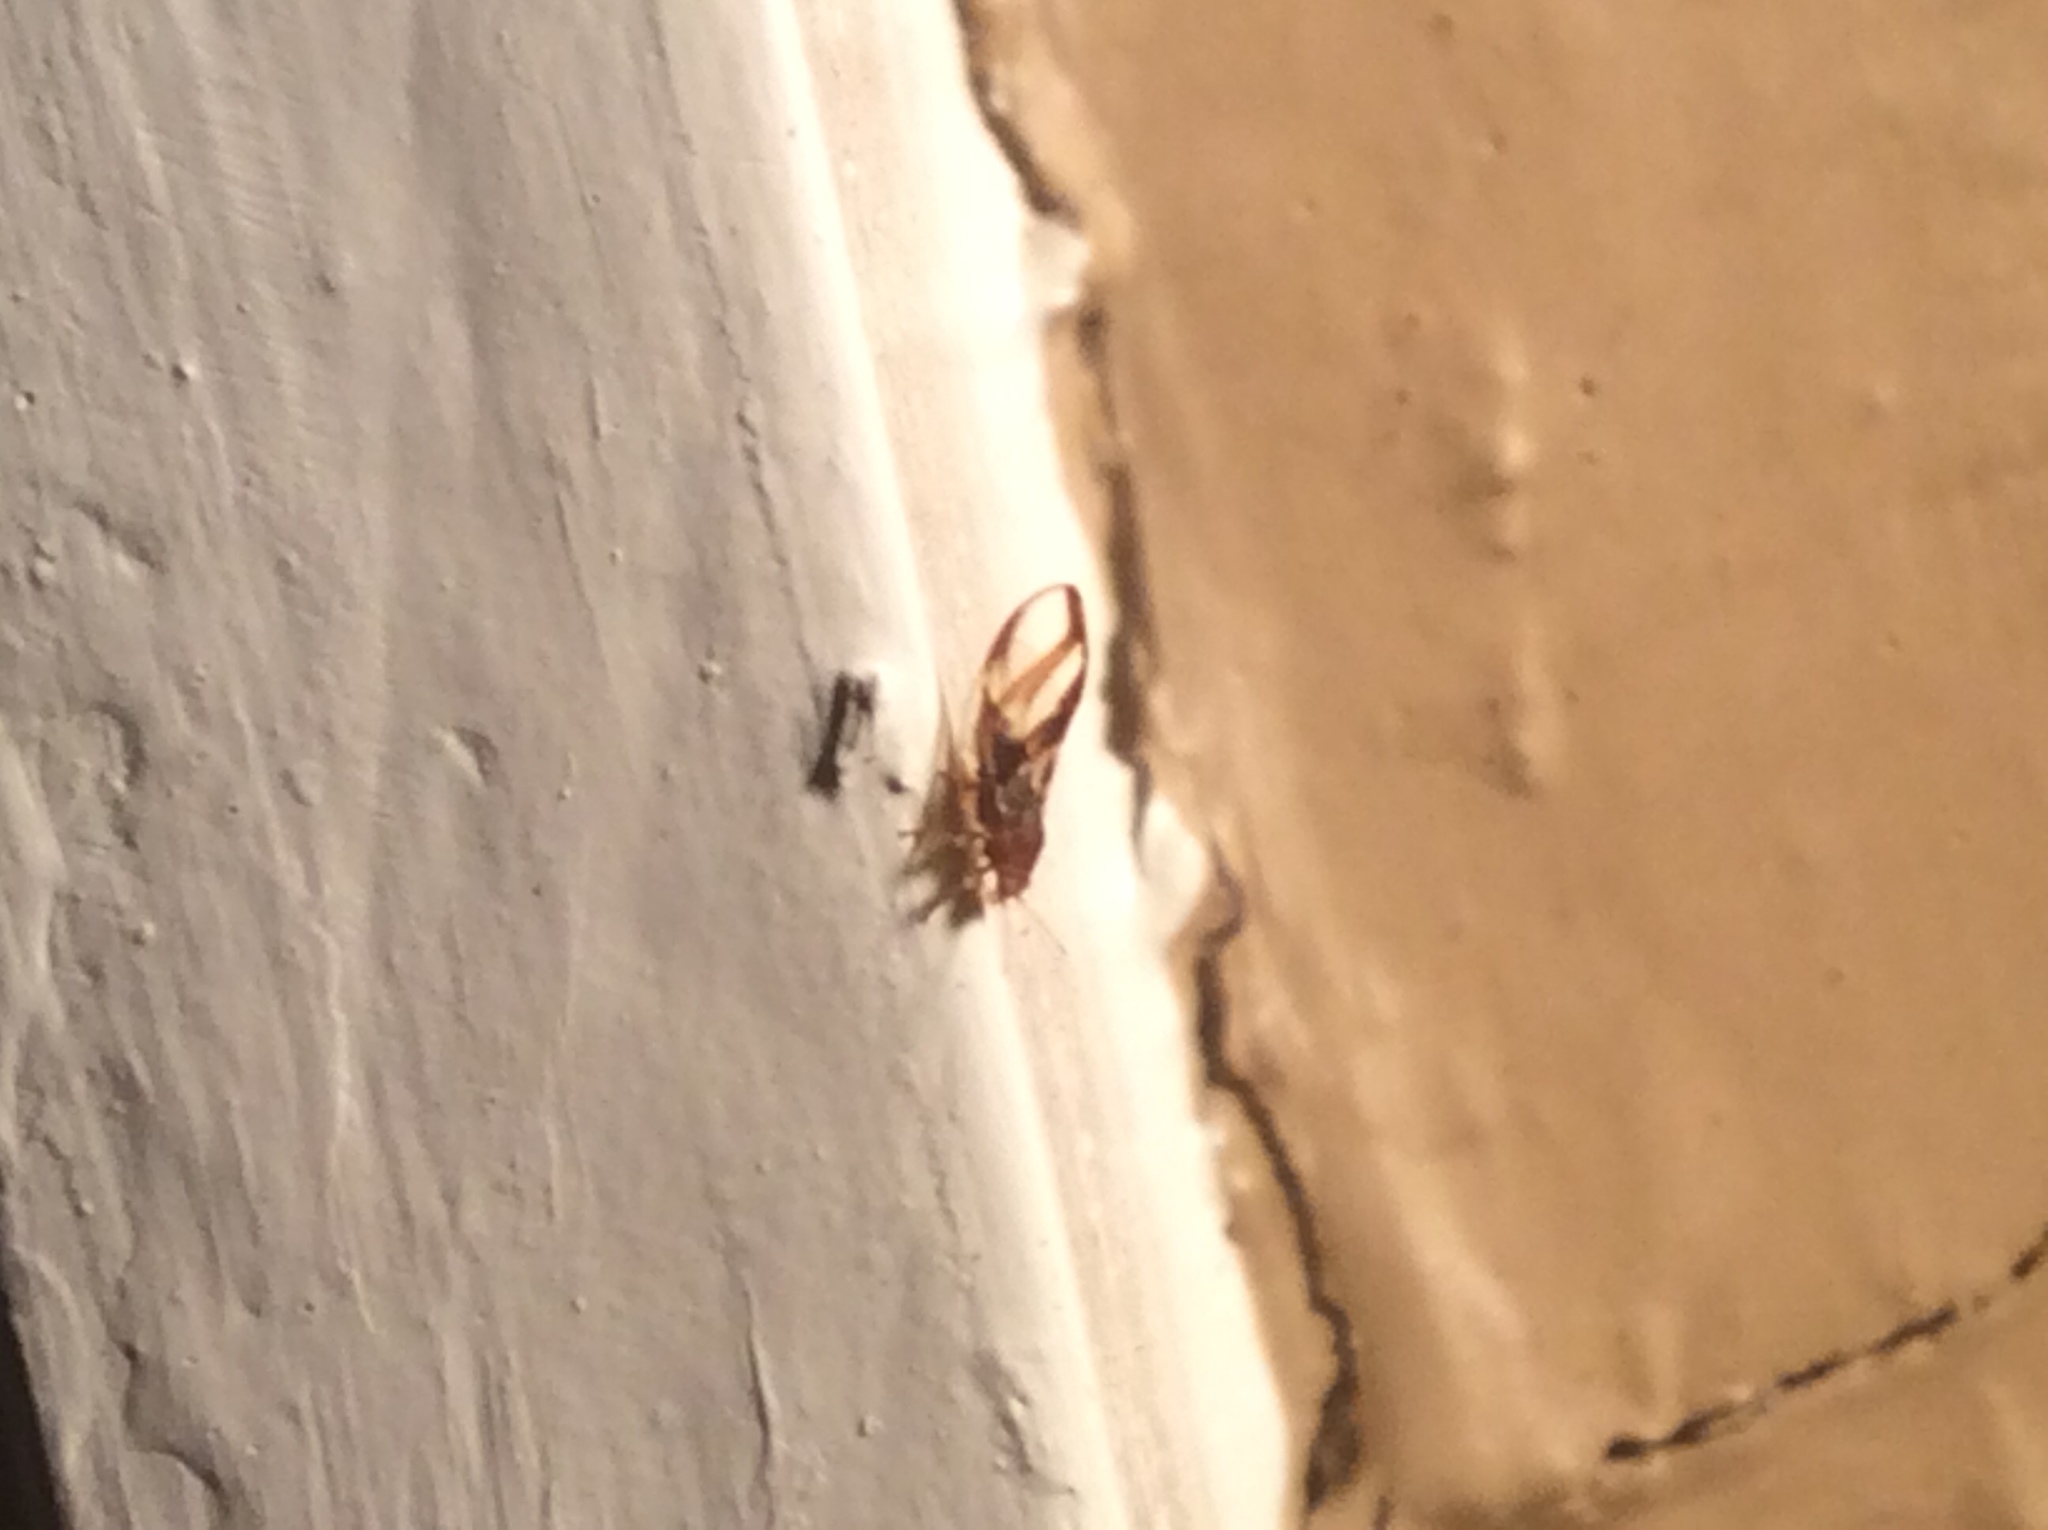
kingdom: Animalia
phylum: Arthropoda
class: Insecta
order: Hemiptera
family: Triozidae
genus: Phylloplecta
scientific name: Phylloplecta tripunctata
